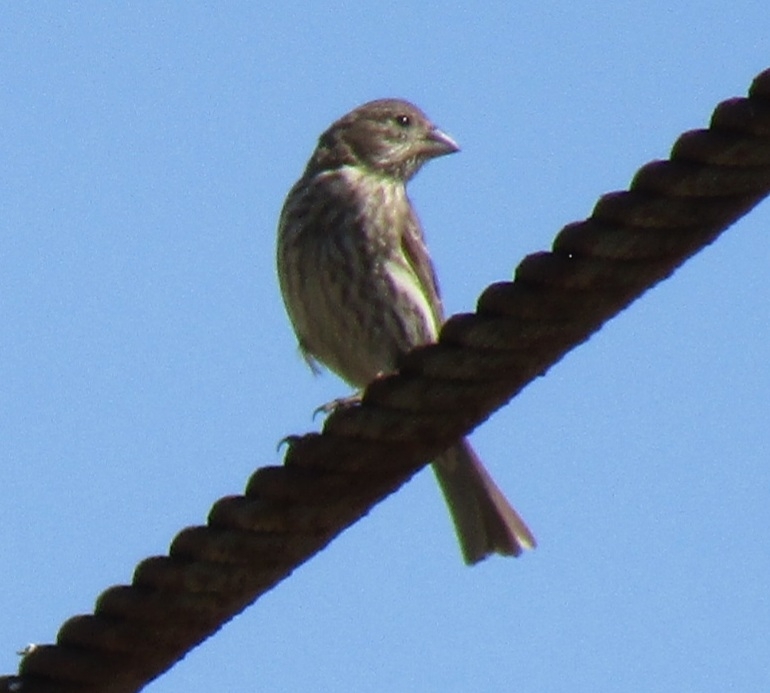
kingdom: Animalia
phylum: Chordata
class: Aves
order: Passeriformes
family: Fringillidae
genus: Haemorhous
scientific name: Haemorhous mexicanus
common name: House finch
